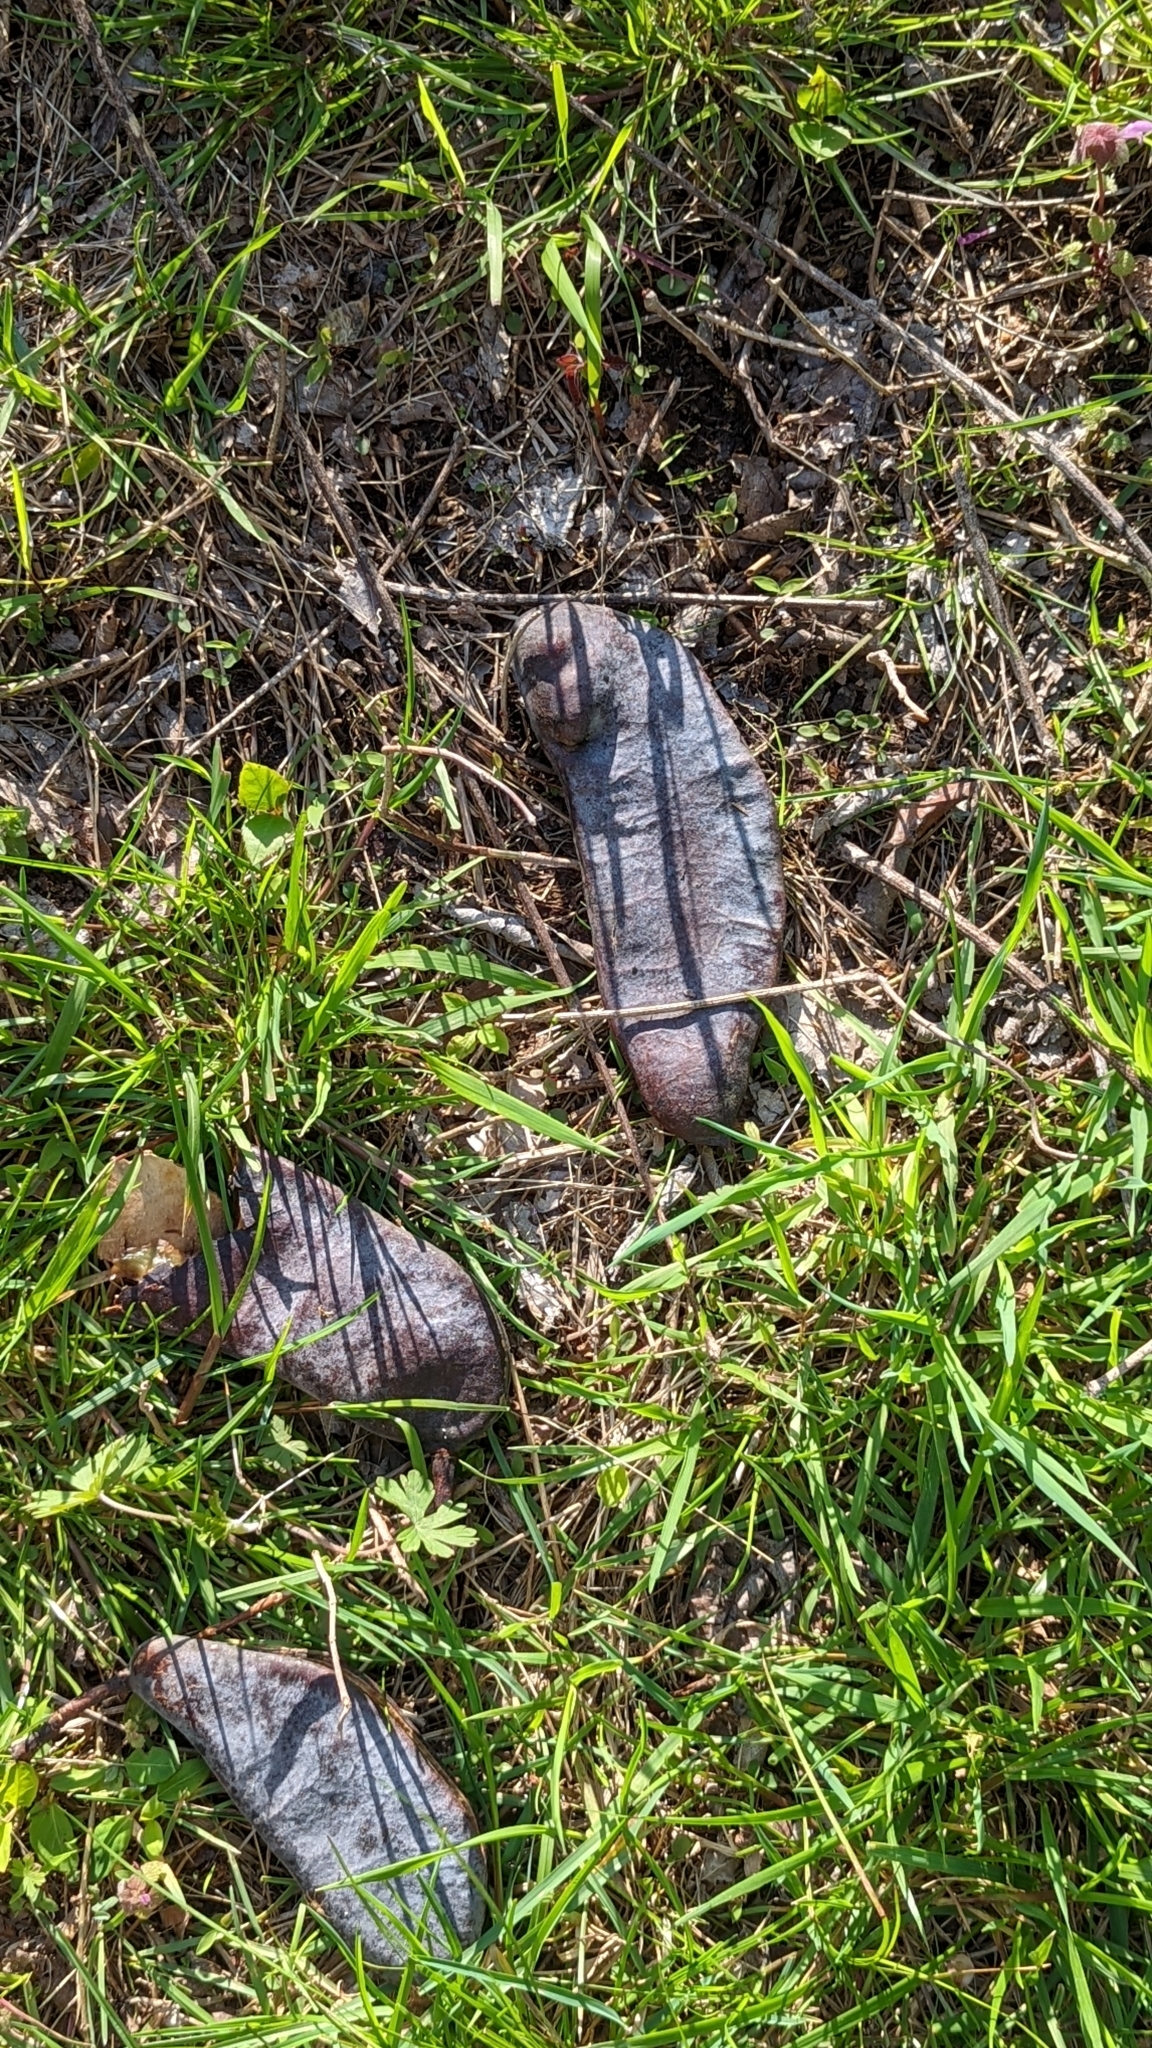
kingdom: Plantae
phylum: Tracheophyta
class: Magnoliopsida
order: Fabales
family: Fabaceae
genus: Gymnocladus
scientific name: Gymnocladus dioicus
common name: Kentucky coffee-tree
